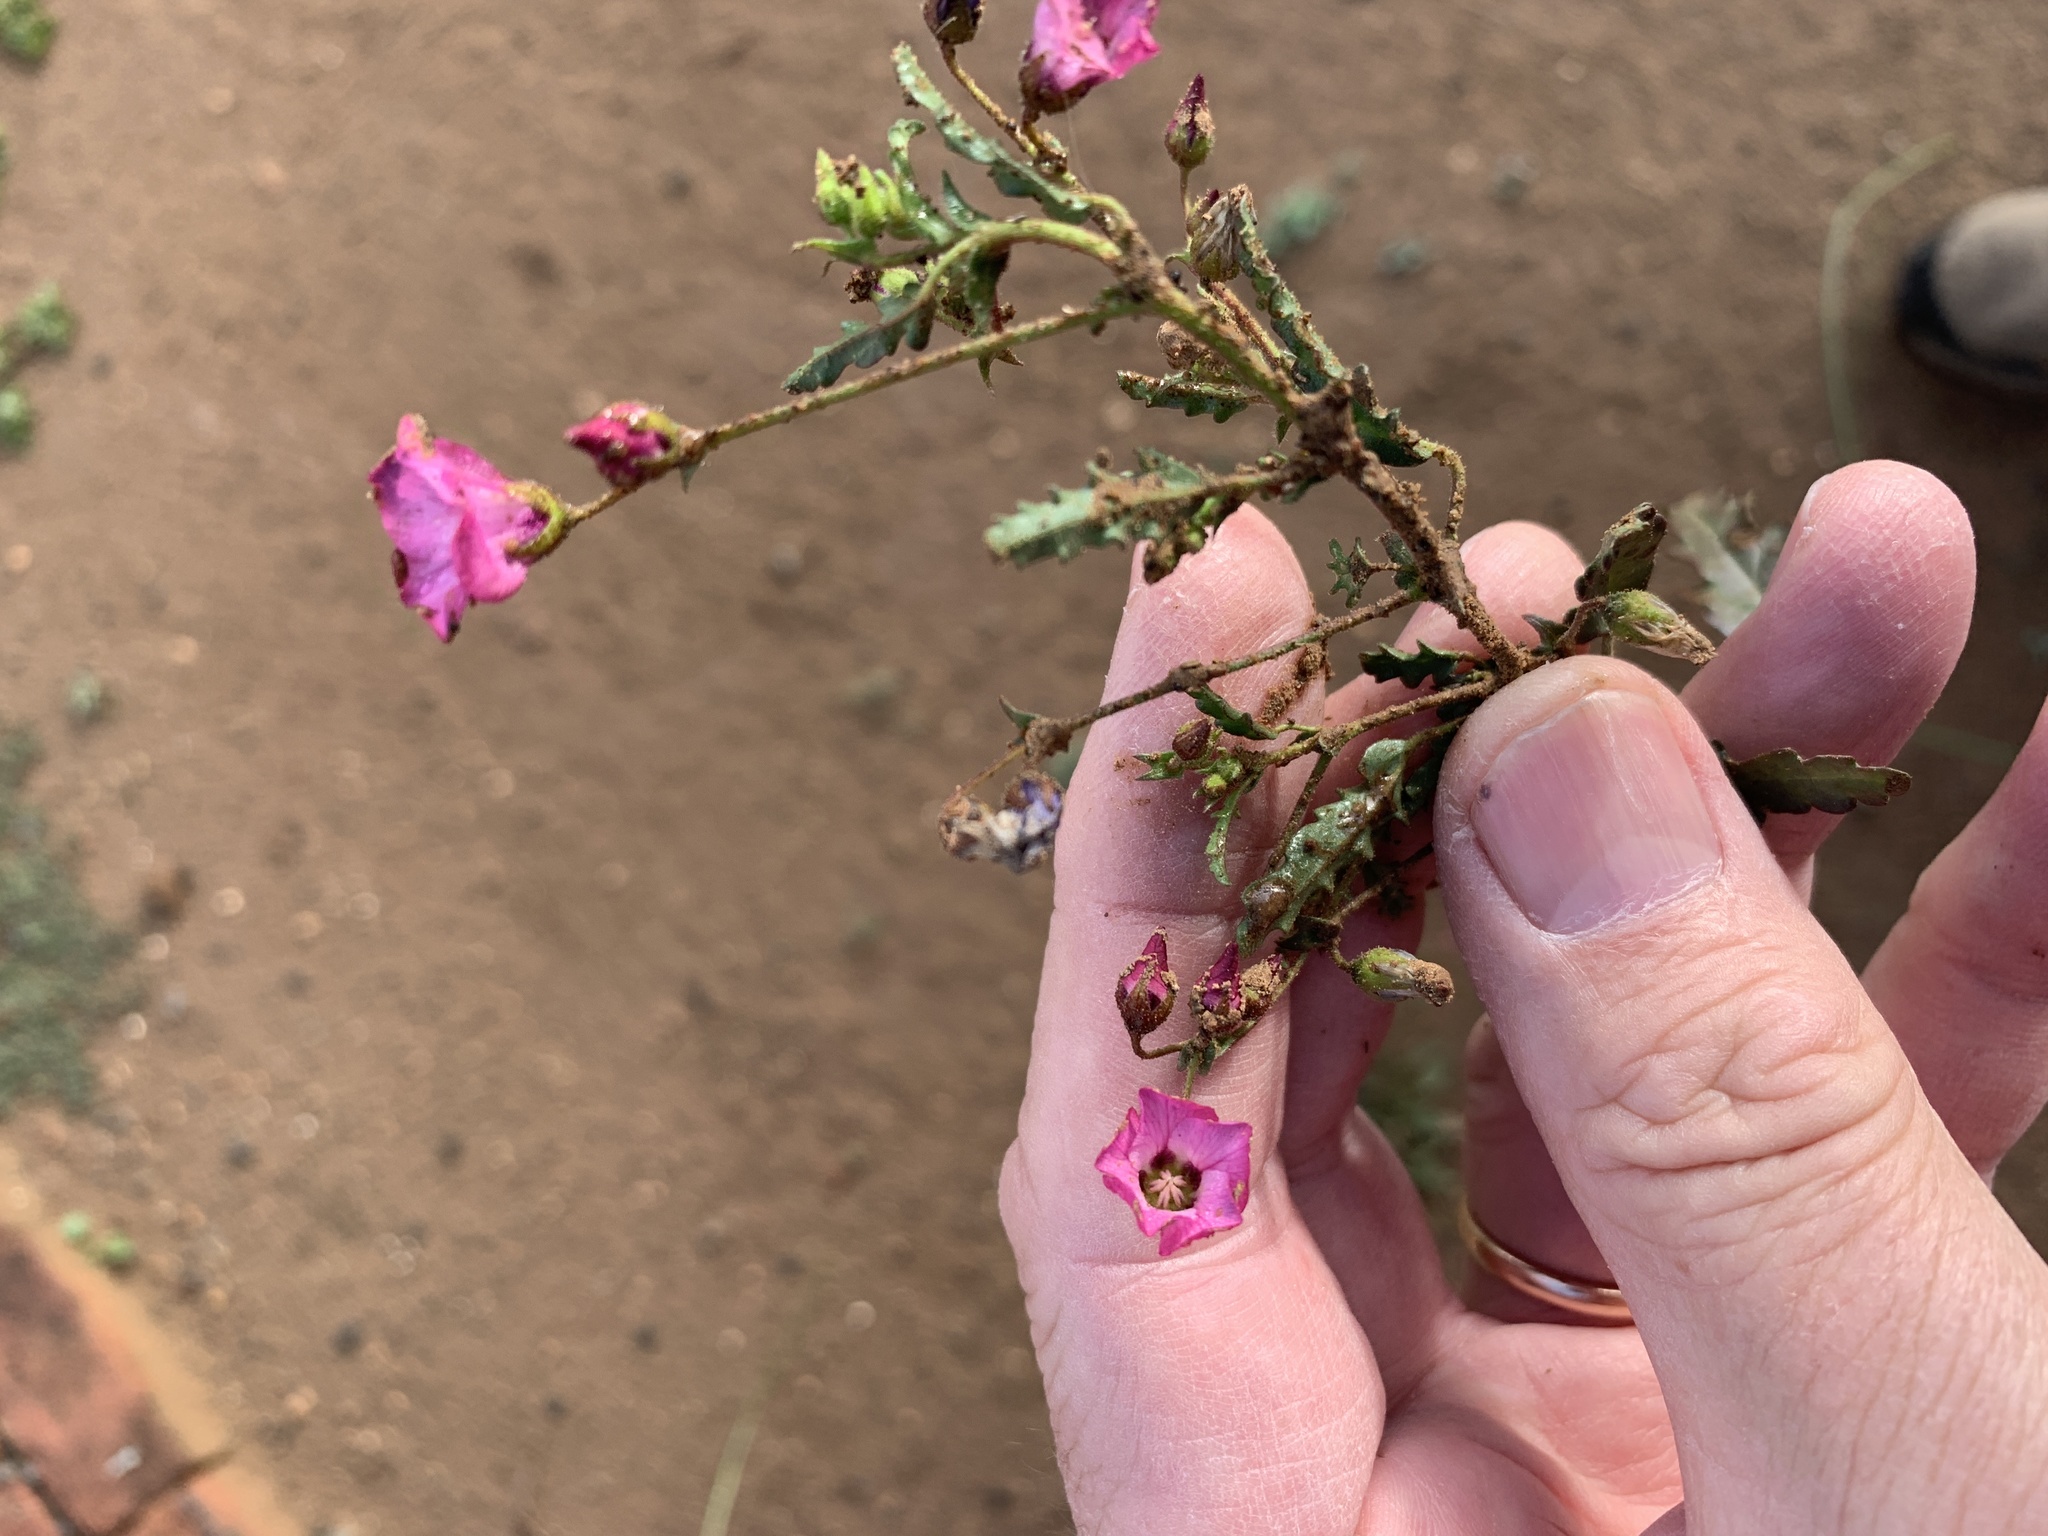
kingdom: Plantae
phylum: Tracheophyta
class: Magnoliopsida
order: Malvales
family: Malvaceae
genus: Hermannia
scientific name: Hermannia coccocarpa
